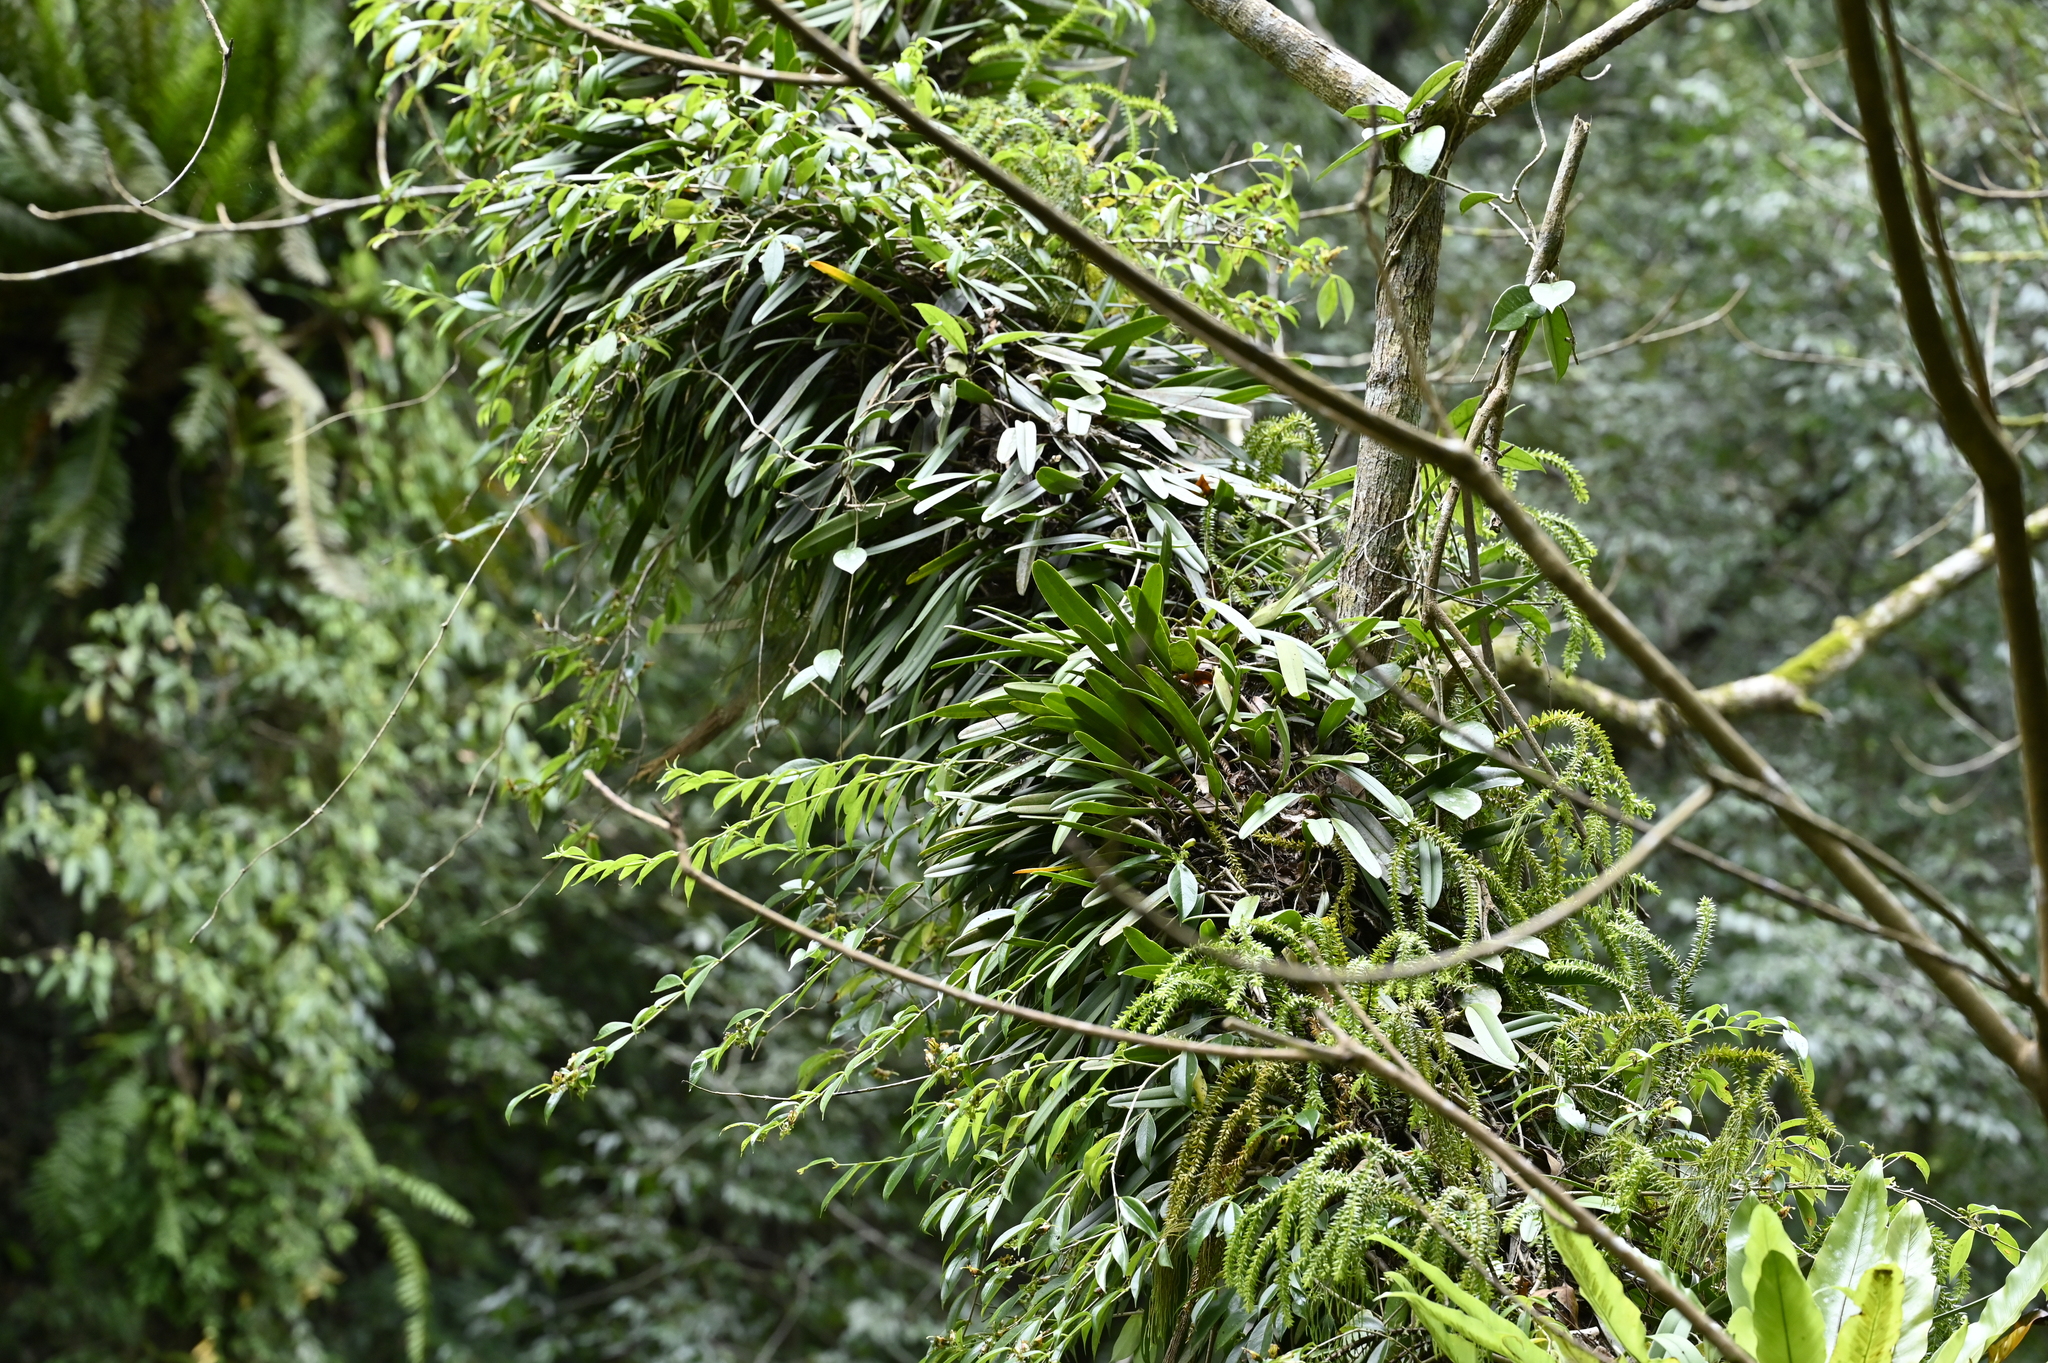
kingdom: Plantae
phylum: Tracheophyta
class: Liliopsida
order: Asparagales
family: Orchidaceae
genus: Bulbophyllum
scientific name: Bulbophyllum affine
